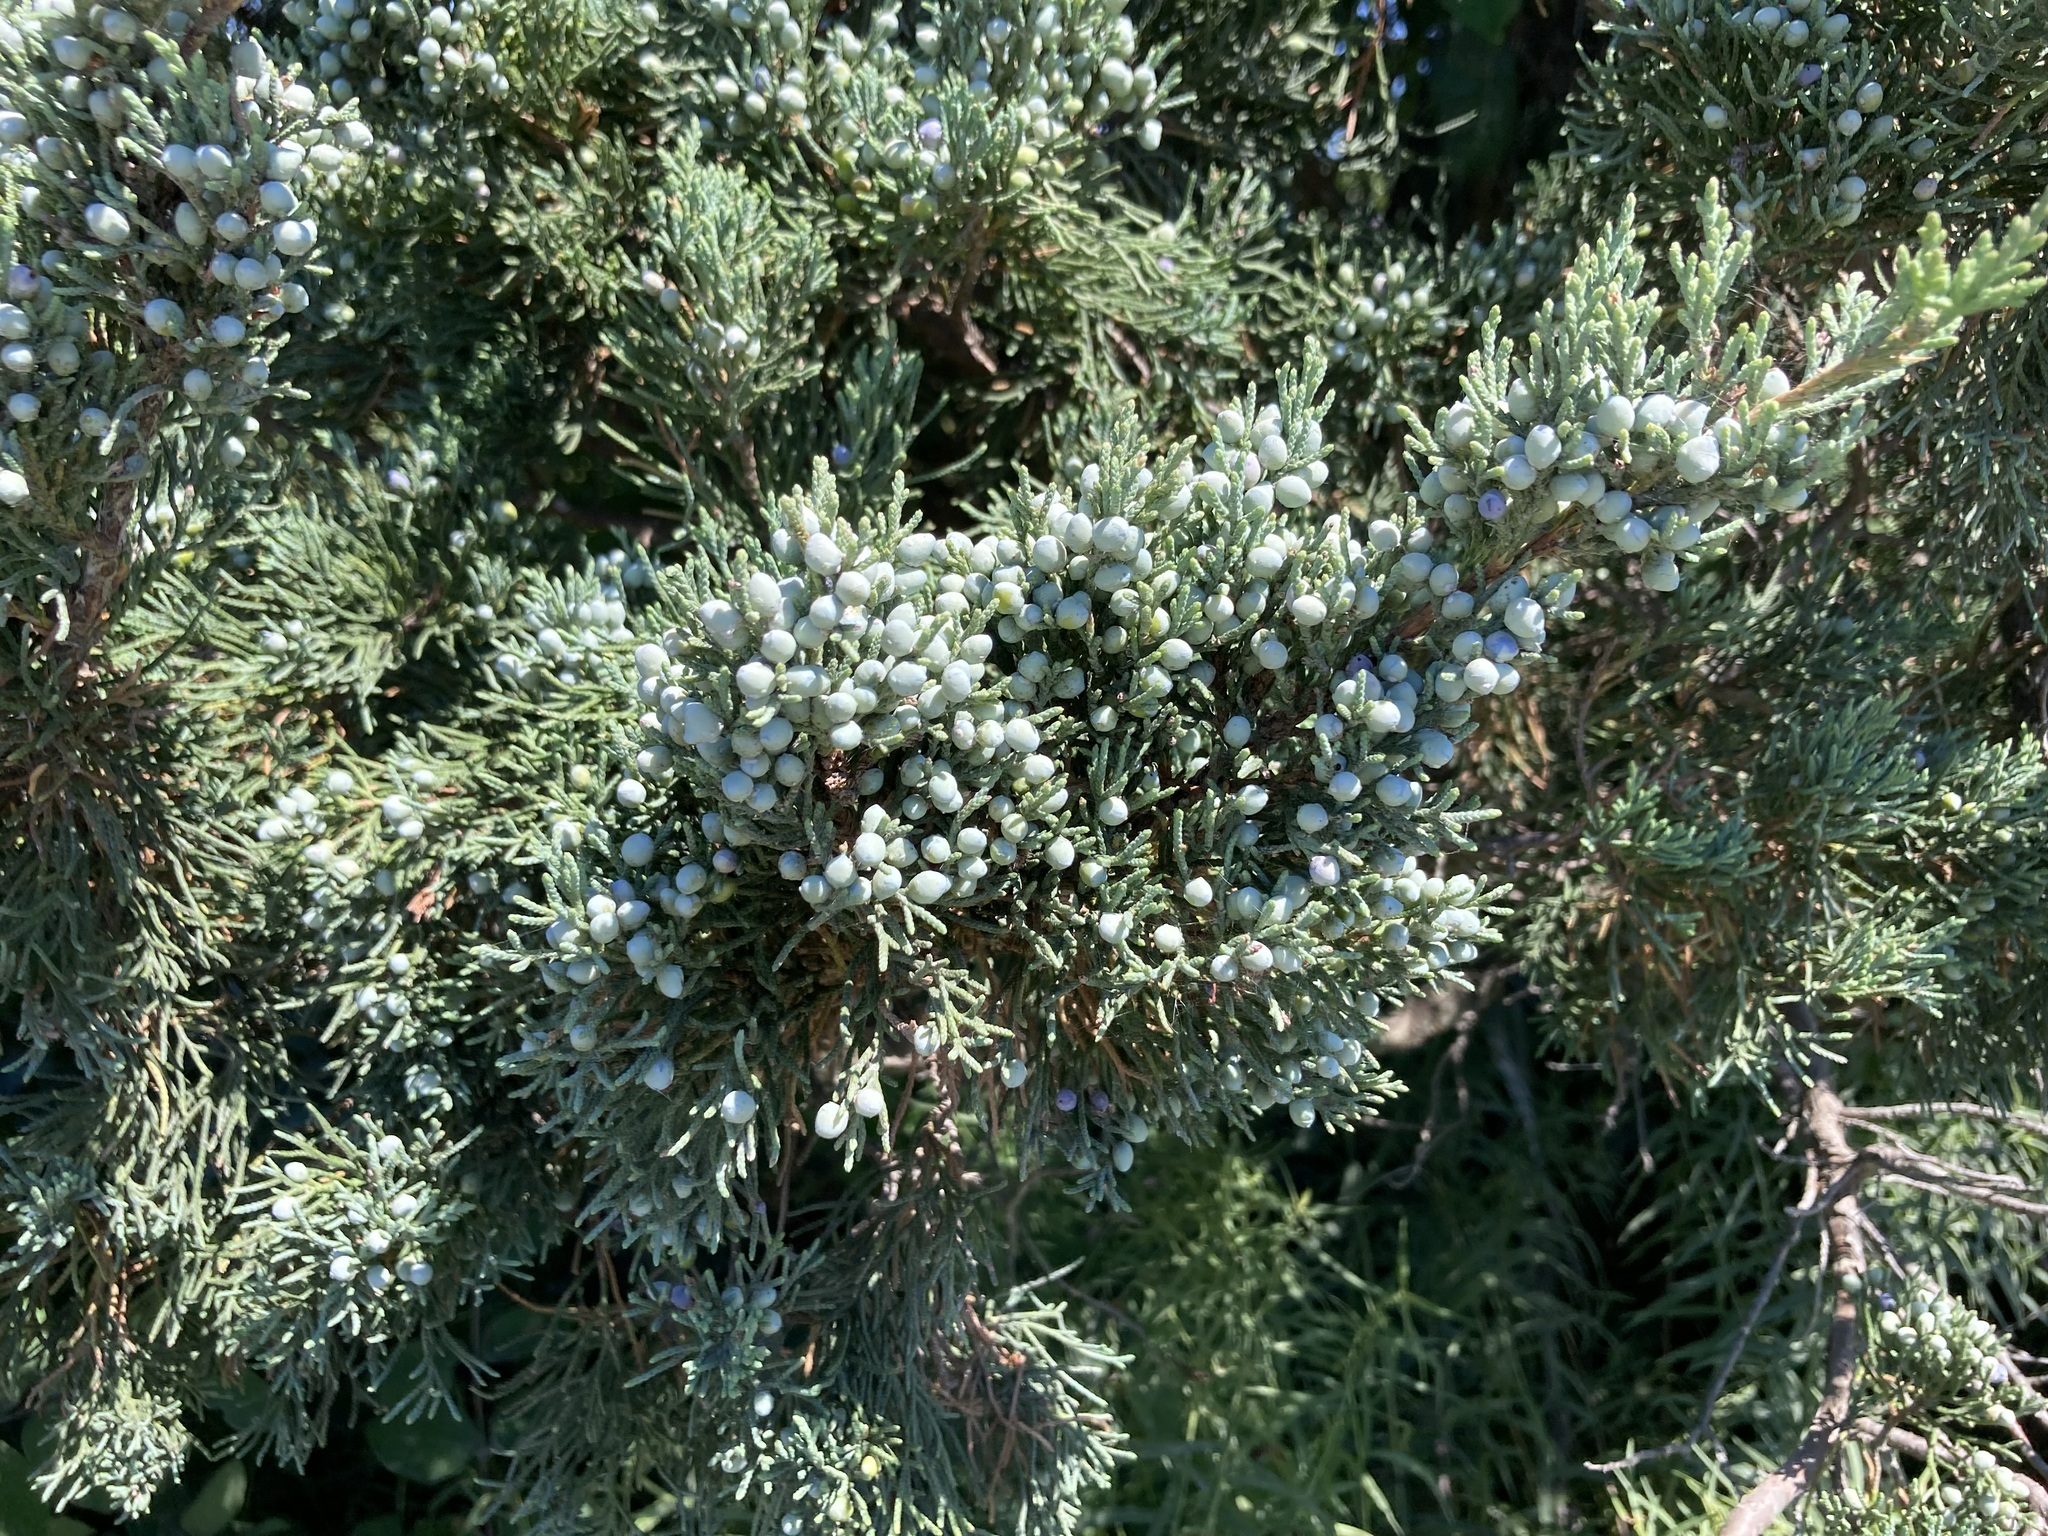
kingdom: Plantae
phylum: Tracheophyta
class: Pinopsida
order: Pinales
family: Cupressaceae
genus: Juniperus
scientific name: Juniperus virginiana
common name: Red juniper
